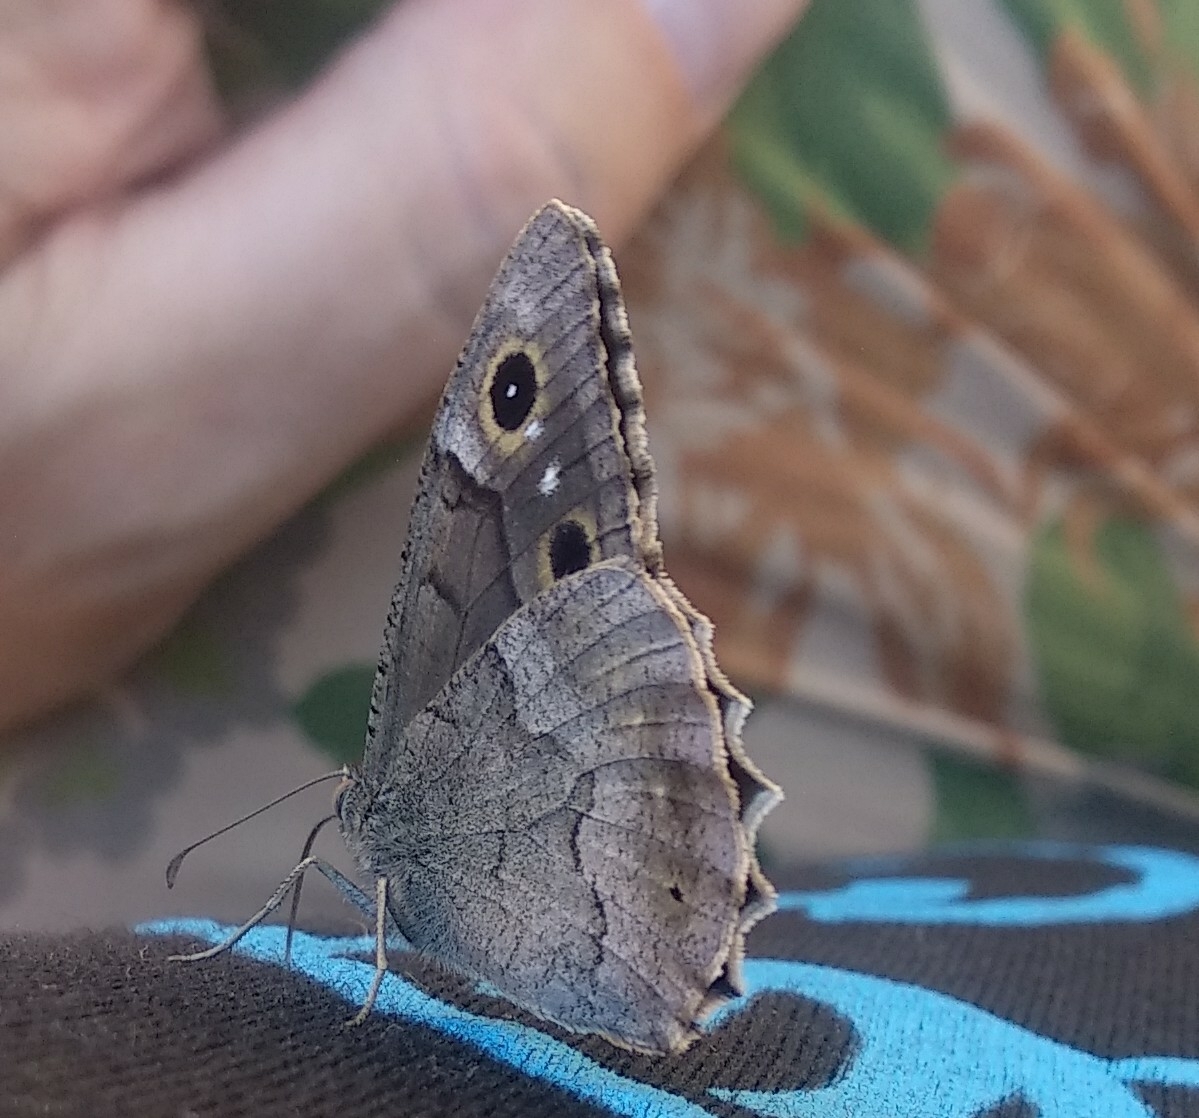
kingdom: Animalia
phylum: Arthropoda
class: Insecta
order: Lepidoptera
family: Nymphalidae
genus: Hipparchia
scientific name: Hipparchia statilinus
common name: Tree grayling
